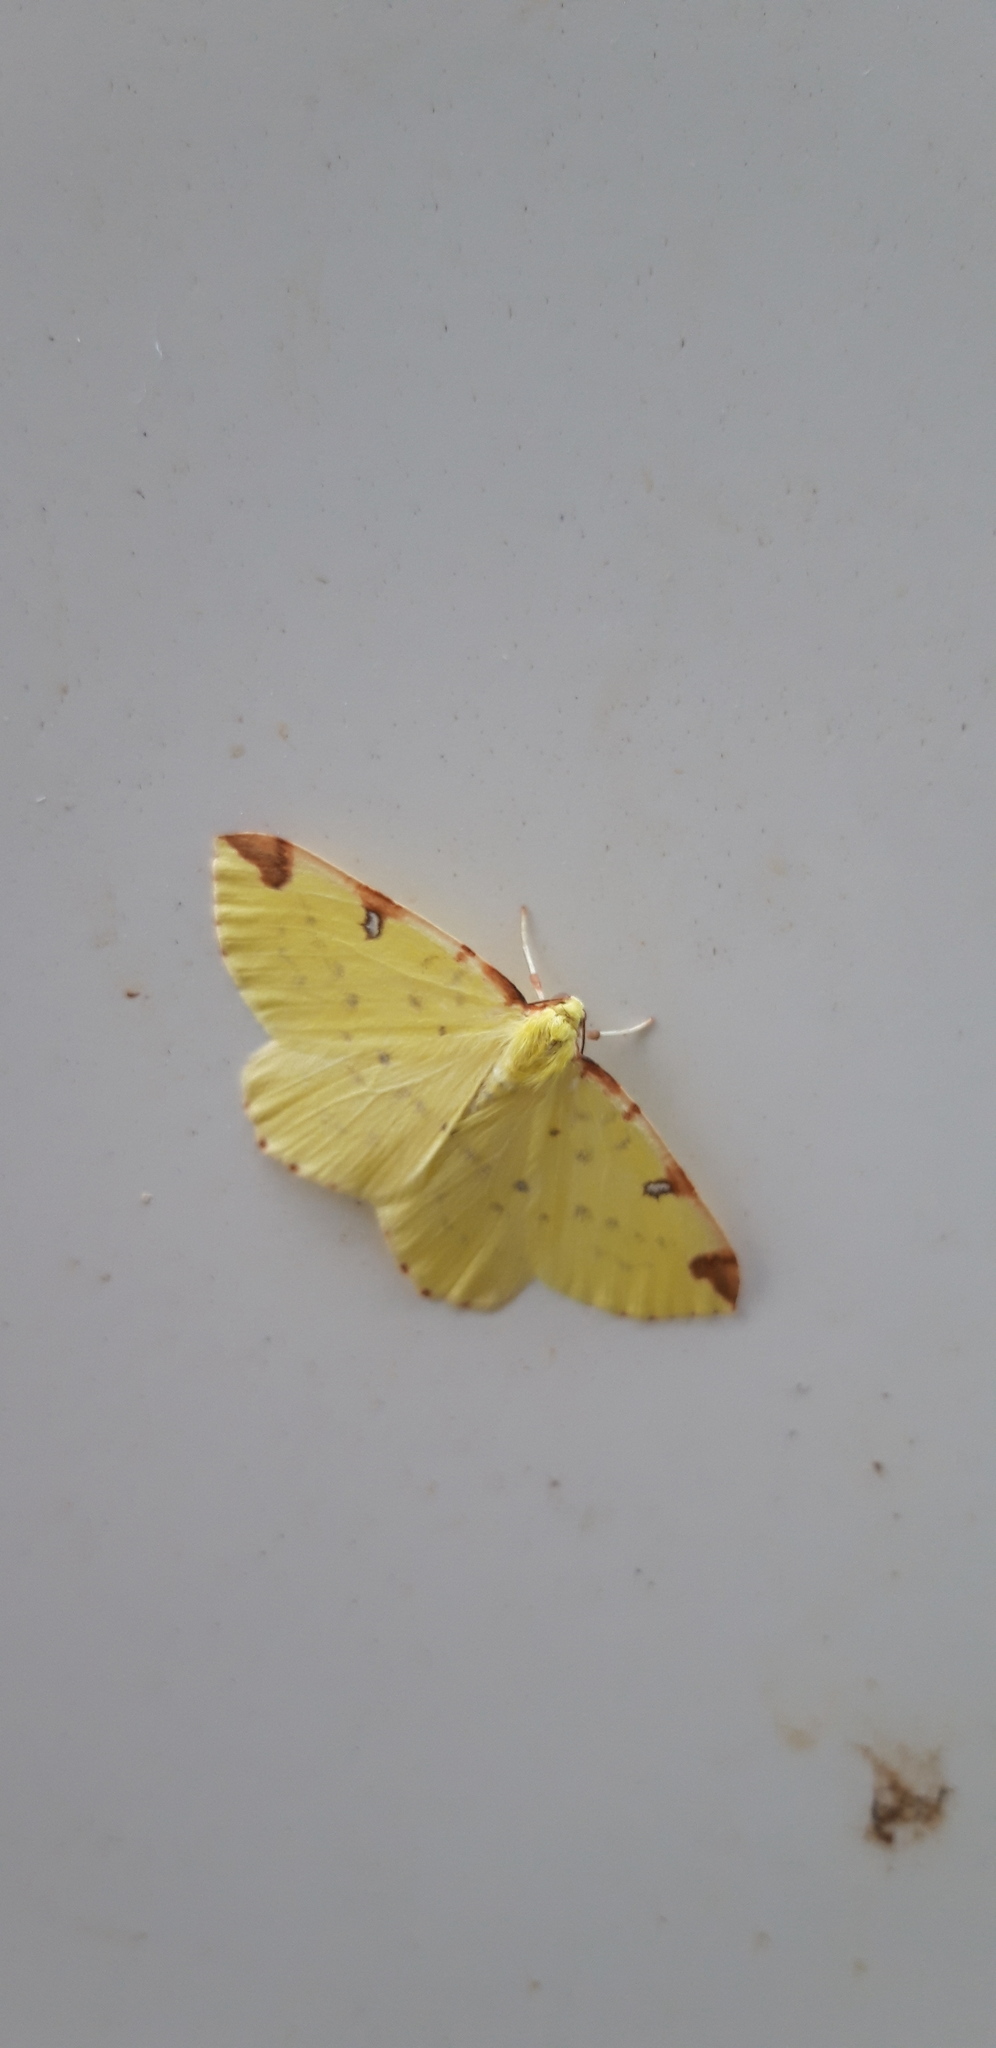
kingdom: Animalia
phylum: Arthropoda
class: Insecta
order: Lepidoptera
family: Geometridae
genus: Opisthograptis
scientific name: Opisthograptis luteolata
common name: Brimstone moth
